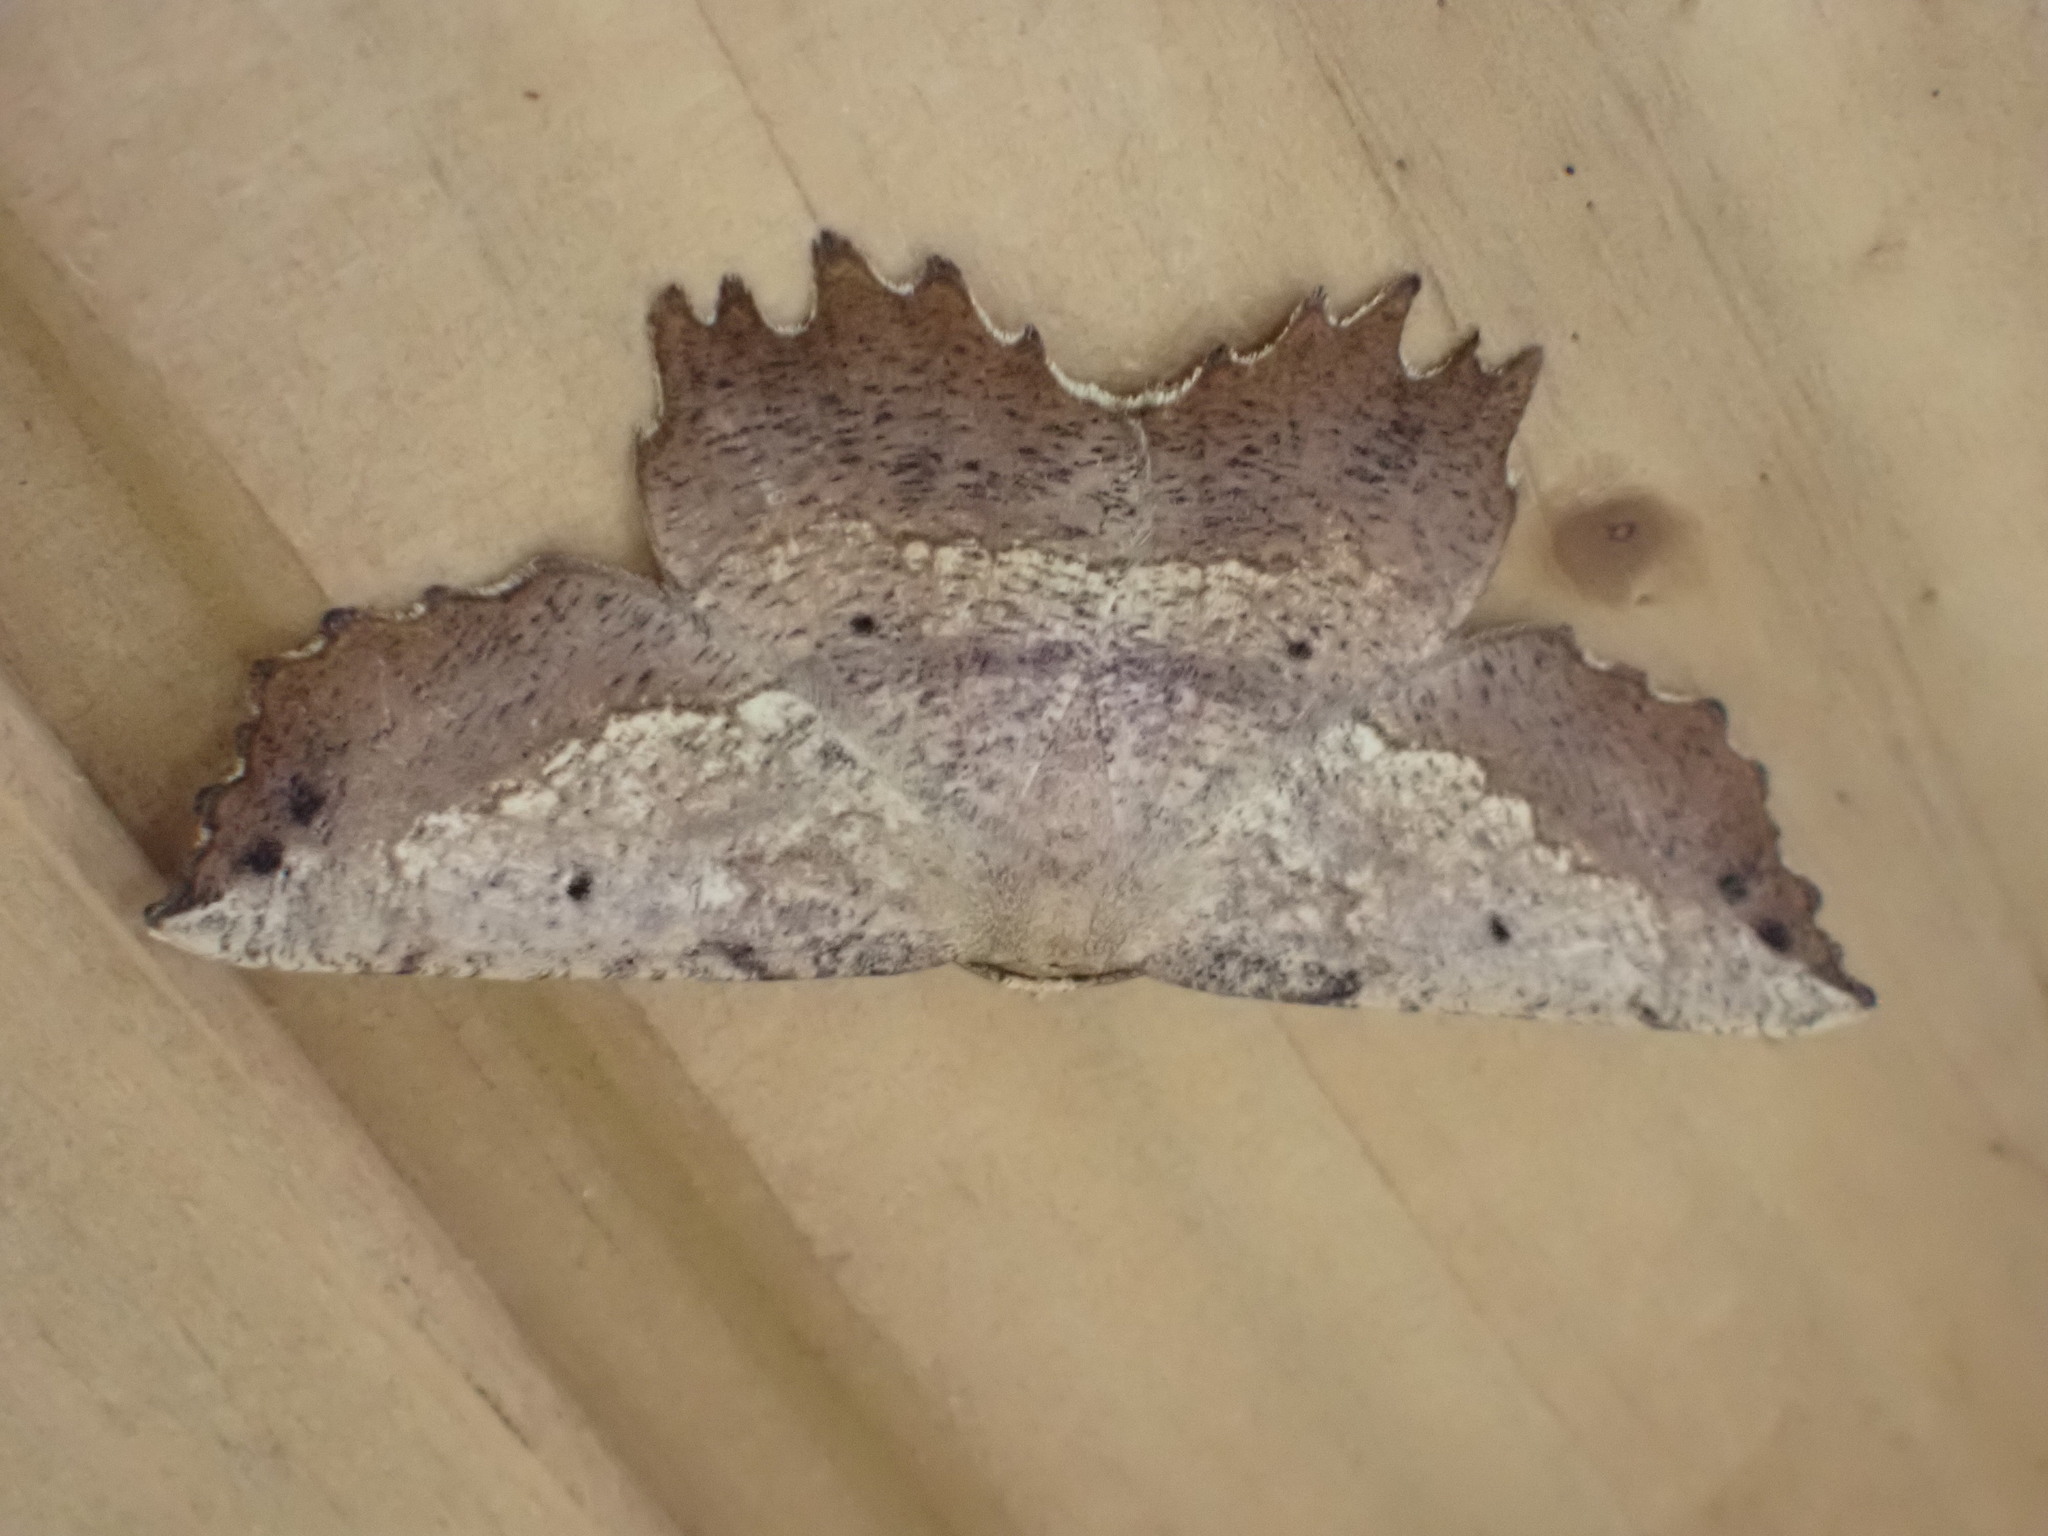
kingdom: Animalia
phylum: Arthropoda
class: Insecta
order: Lepidoptera
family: Geometridae
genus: Euchlaena
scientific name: Euchlaena muzaria
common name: Muzaria euchlaena
